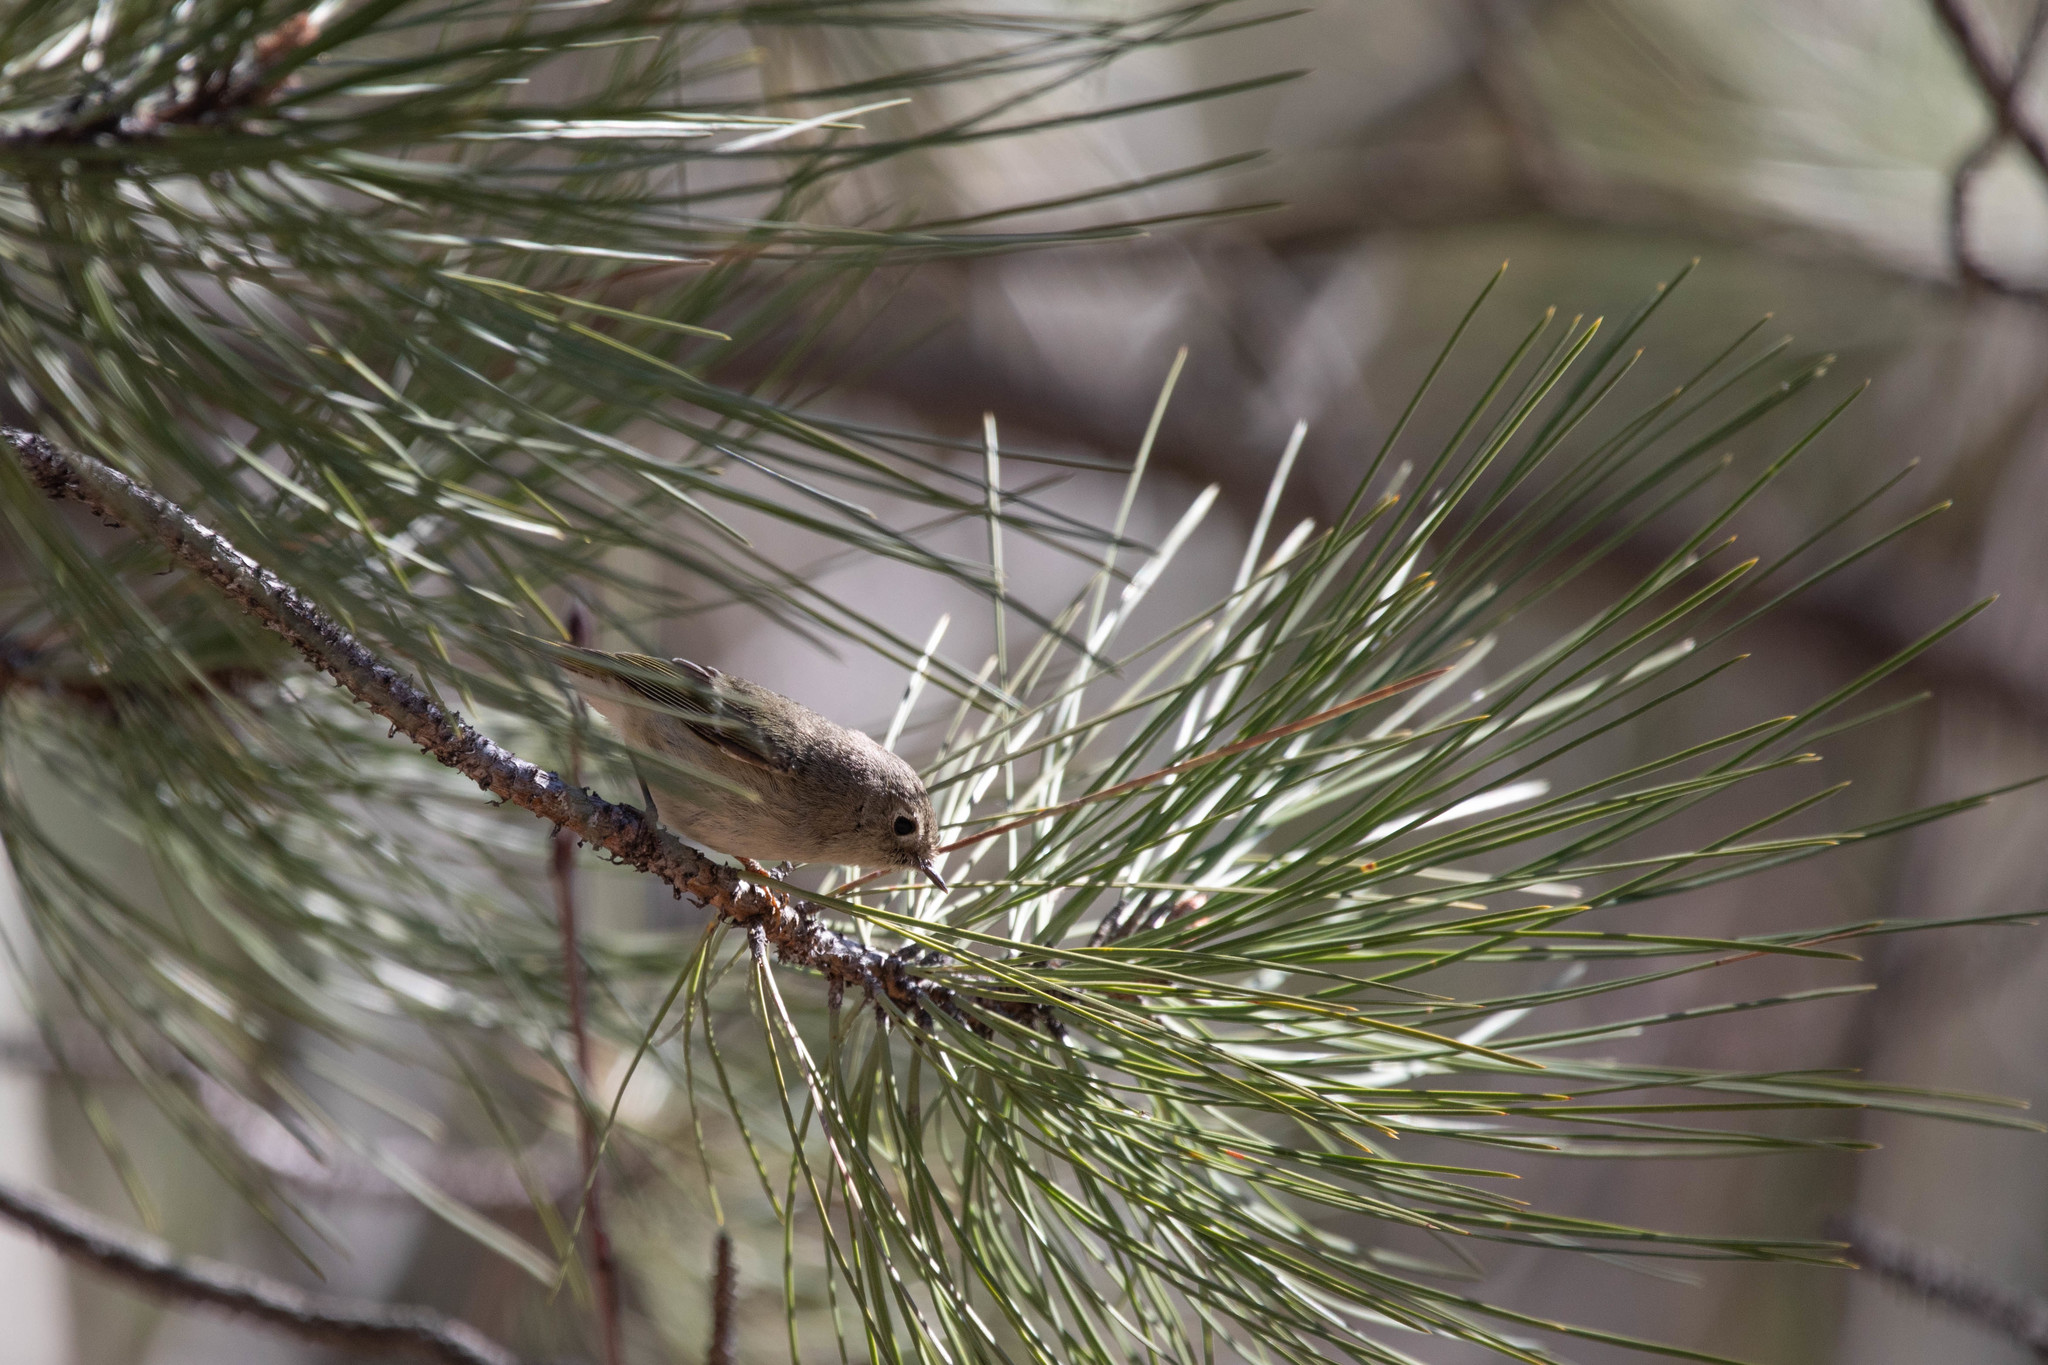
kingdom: Animalia
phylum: Chordata
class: Aves
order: Passeriformes
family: Regulidae
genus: Regulus
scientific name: Regulus calendula
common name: Ruby-crowned kinglet
